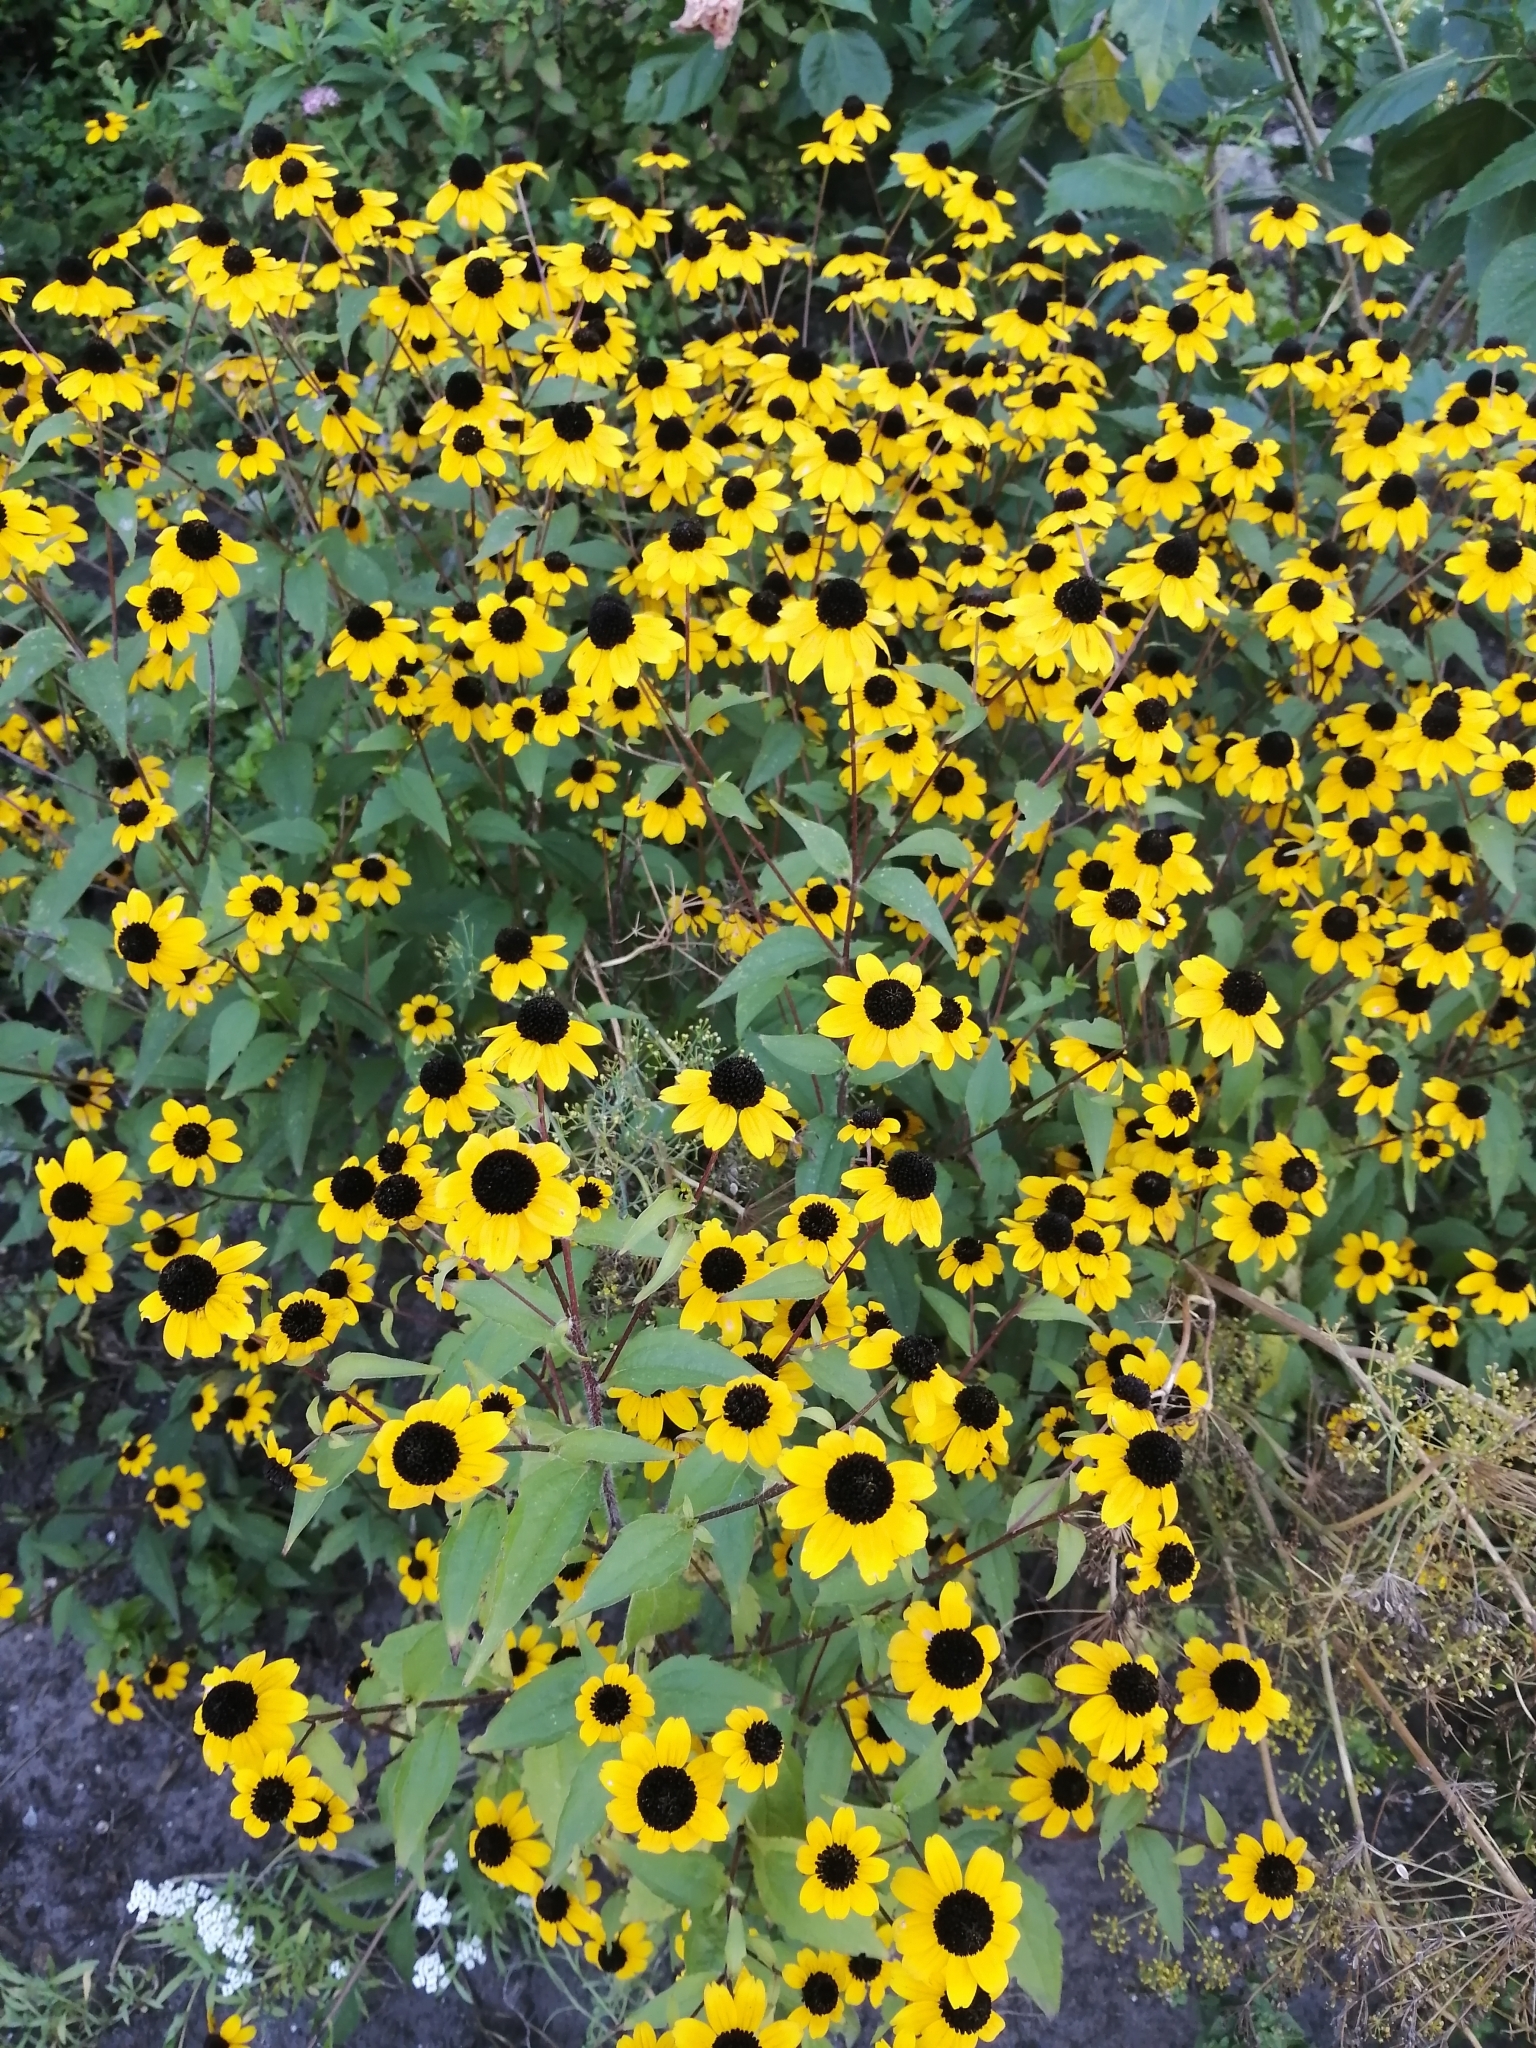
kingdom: Plantae
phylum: Tracheophyta
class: Magnoliopsida
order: Asterales
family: Asteraceae
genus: Rudbeckia
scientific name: Rudbeckia triloba
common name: Thin-leaved coneflower
